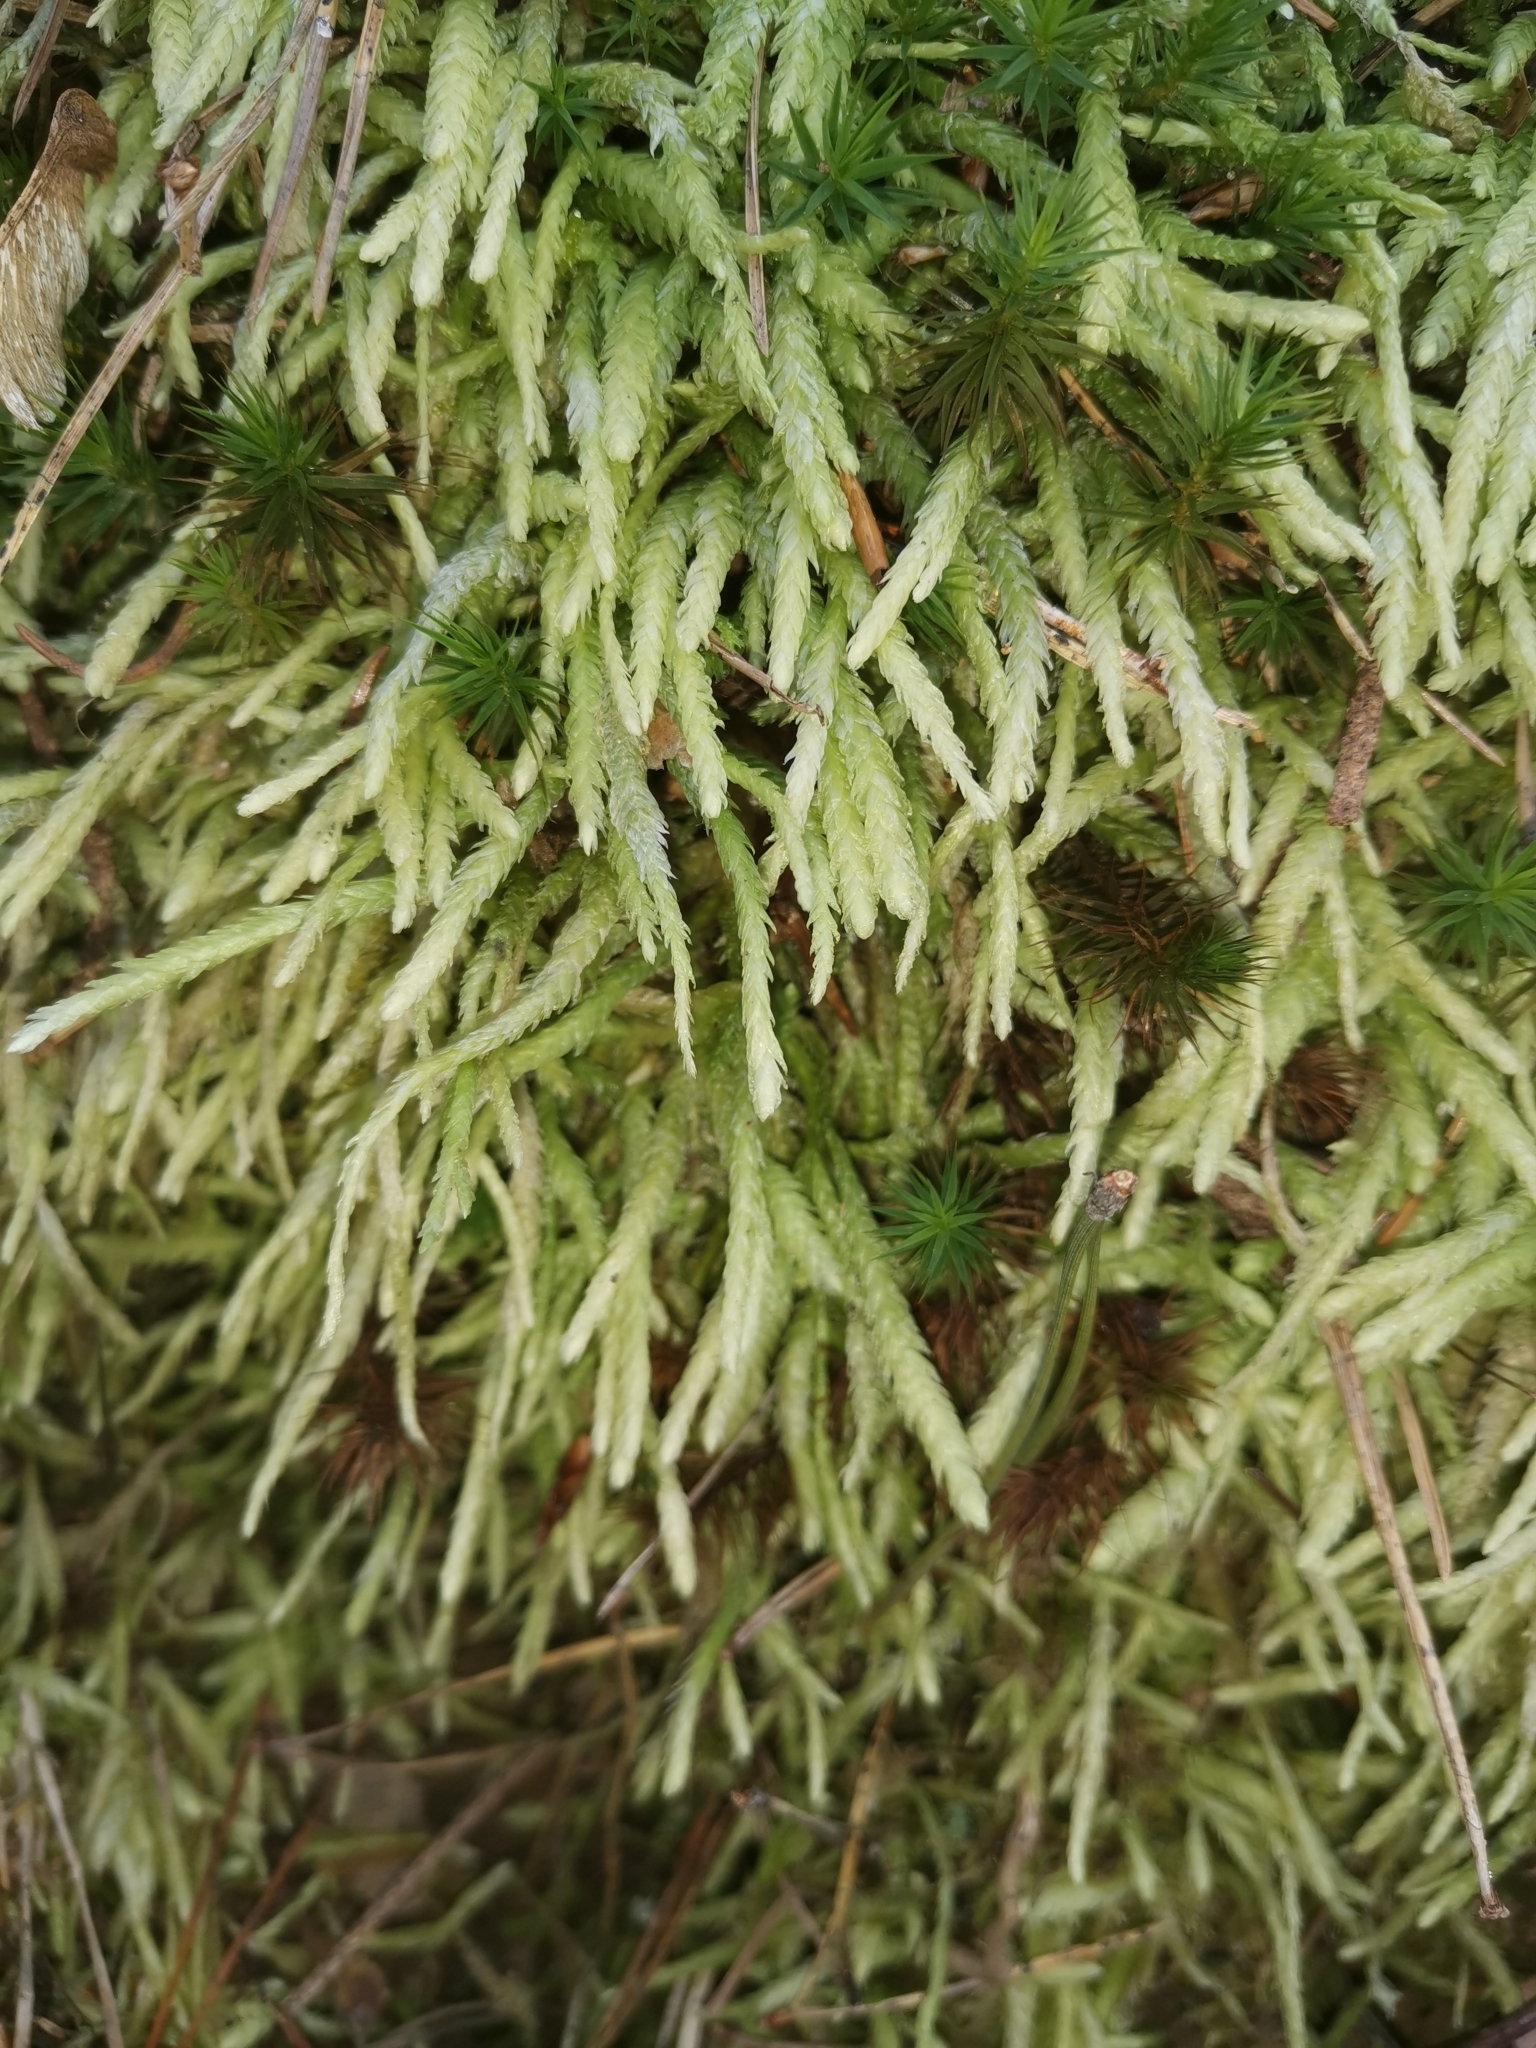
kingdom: Plantae
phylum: Bryophyta
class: Bryopsida
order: Hypnales
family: Plagiotheciaceae
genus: Plagiothecium
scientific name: Plagiothecium undulatum
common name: Waved silk-moss
